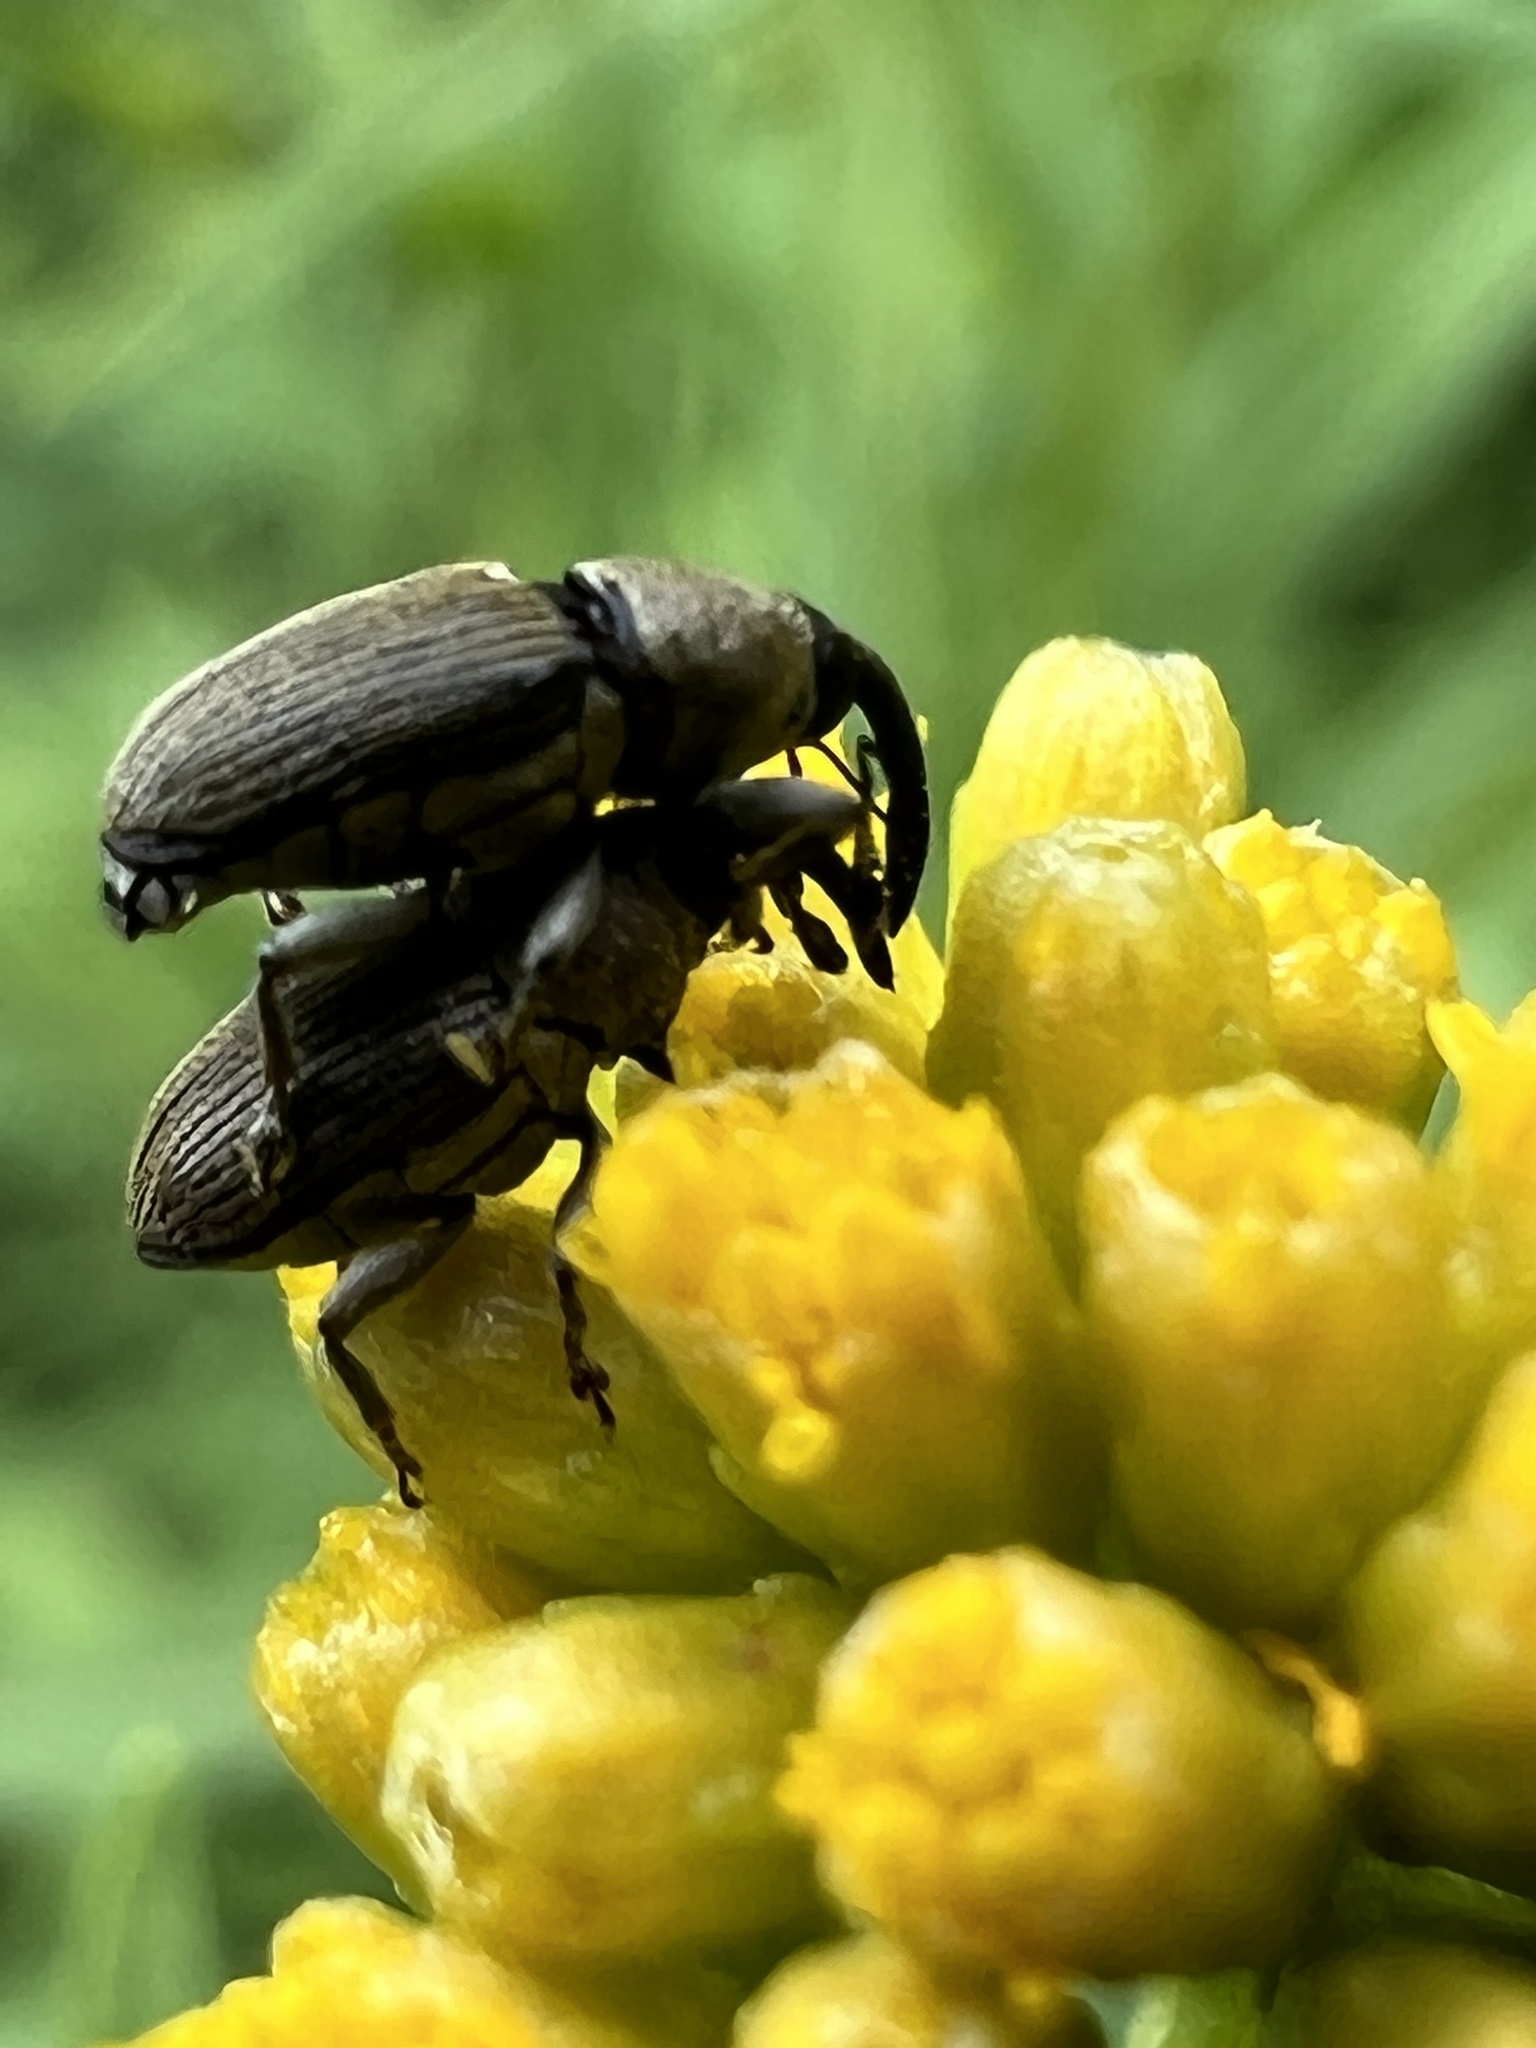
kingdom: Animalia
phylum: Arthropoda
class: Insecta
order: Coleoptera
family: Curculionidae
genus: Odontocorynus
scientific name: Odontocorynus salebrosus
